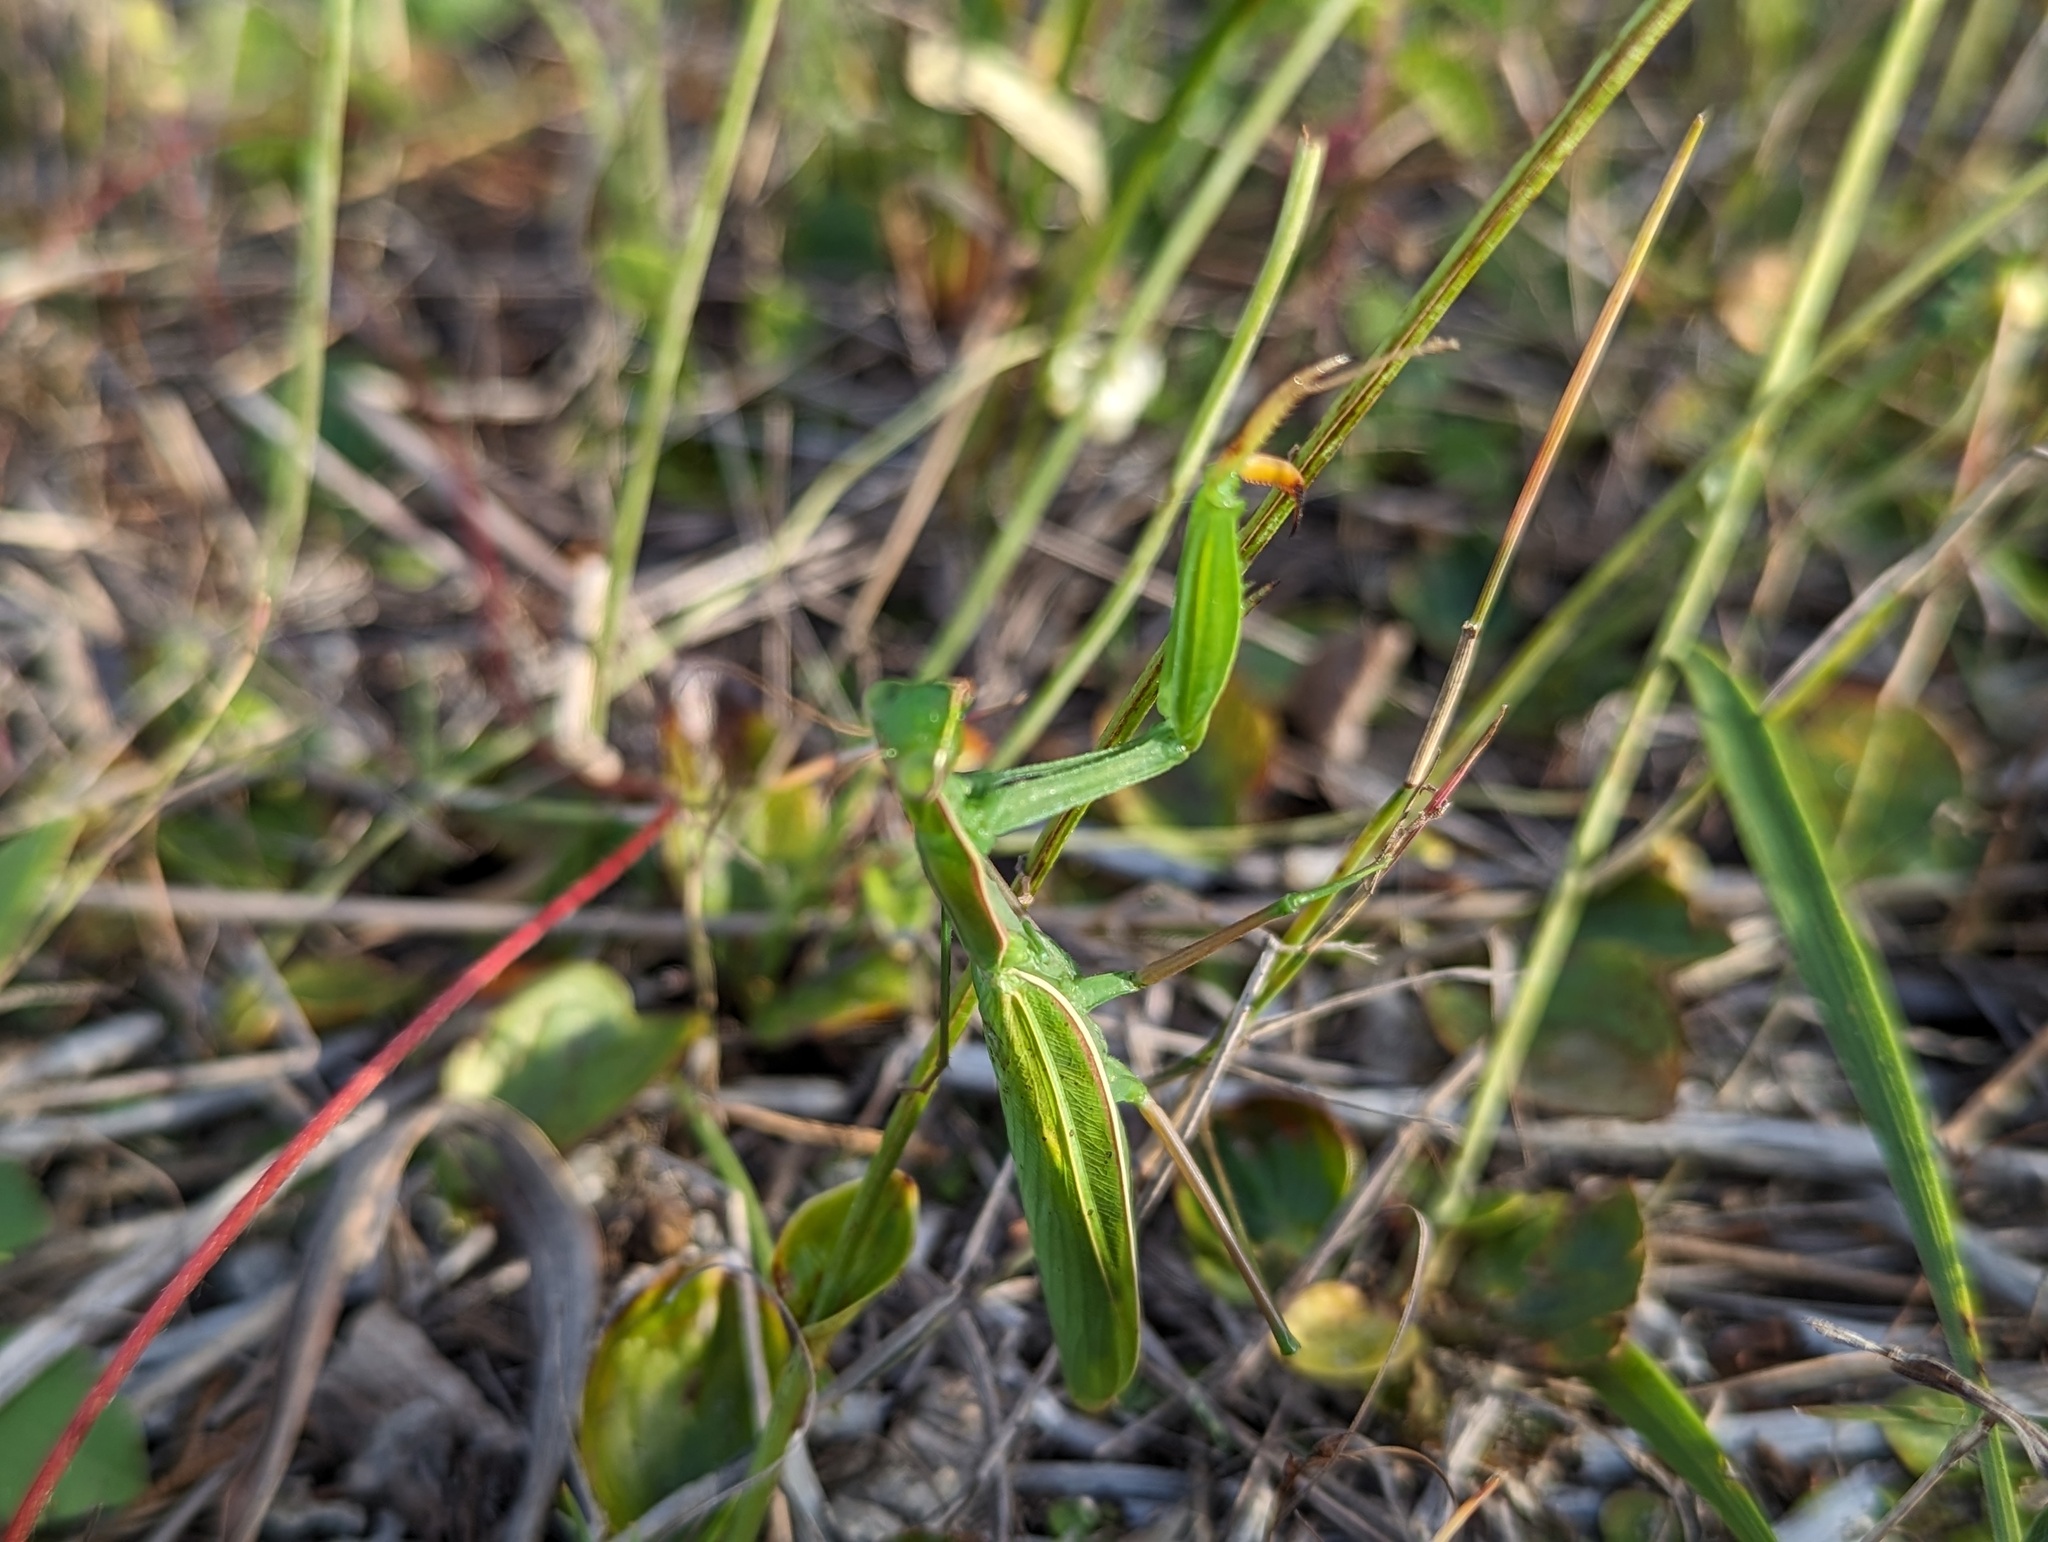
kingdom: Animalia
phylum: Arthropoda
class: Insecta
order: Mantodea
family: Mantidae
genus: Mantis
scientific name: Mantis religiosa
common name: Praying mantis
